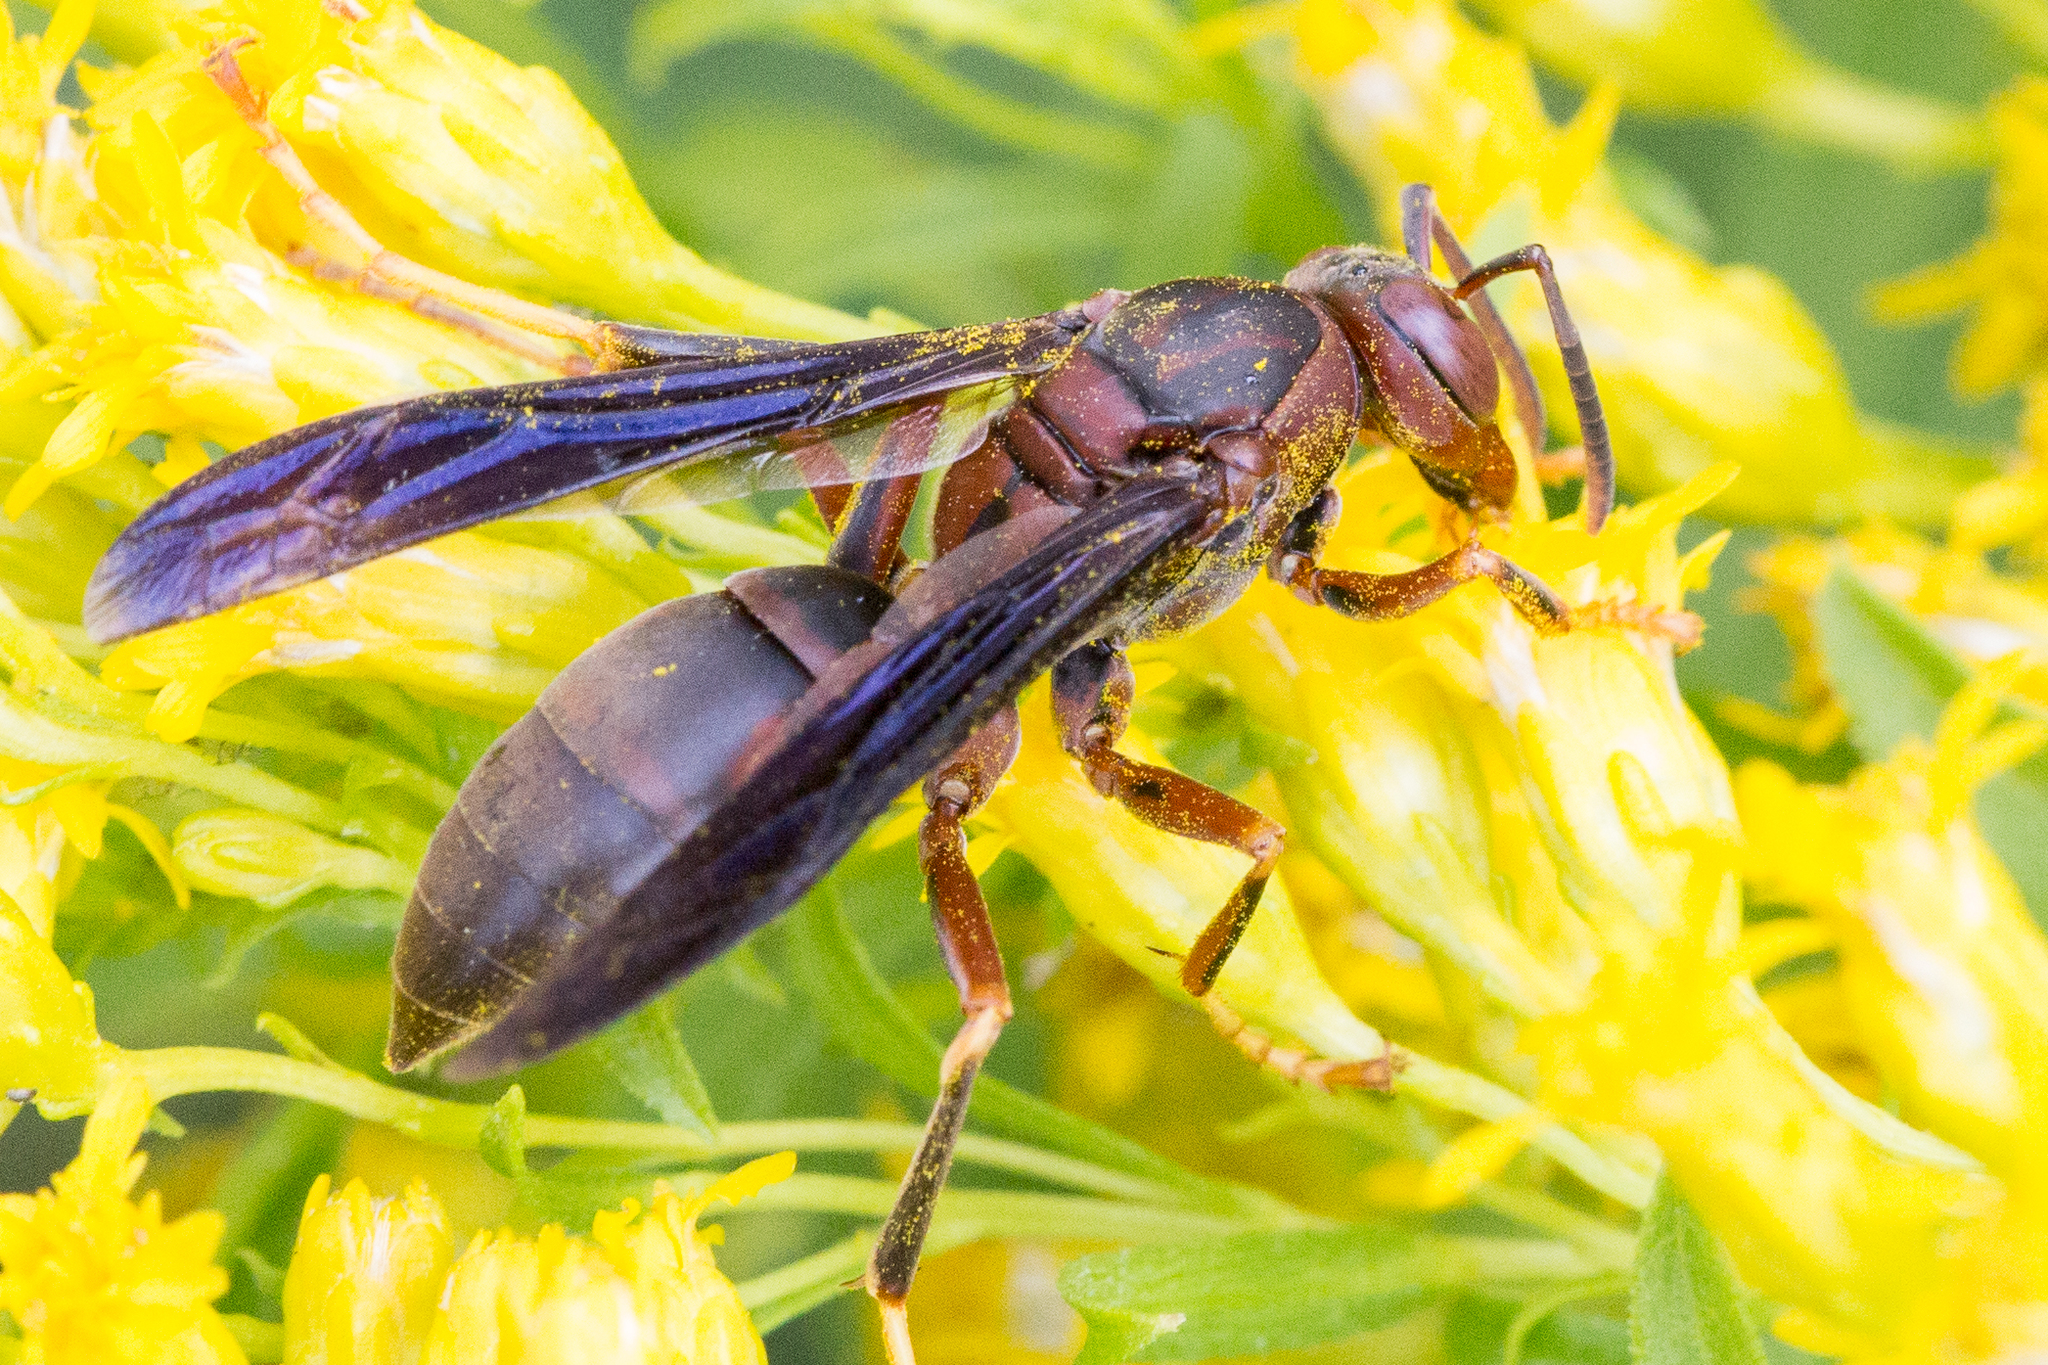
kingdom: Animalia
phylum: Arthropoda
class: Insecta
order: Hymenoptera
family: Eumenidae
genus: Polistes
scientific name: Polistes metricus
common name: Metric paper wasp
